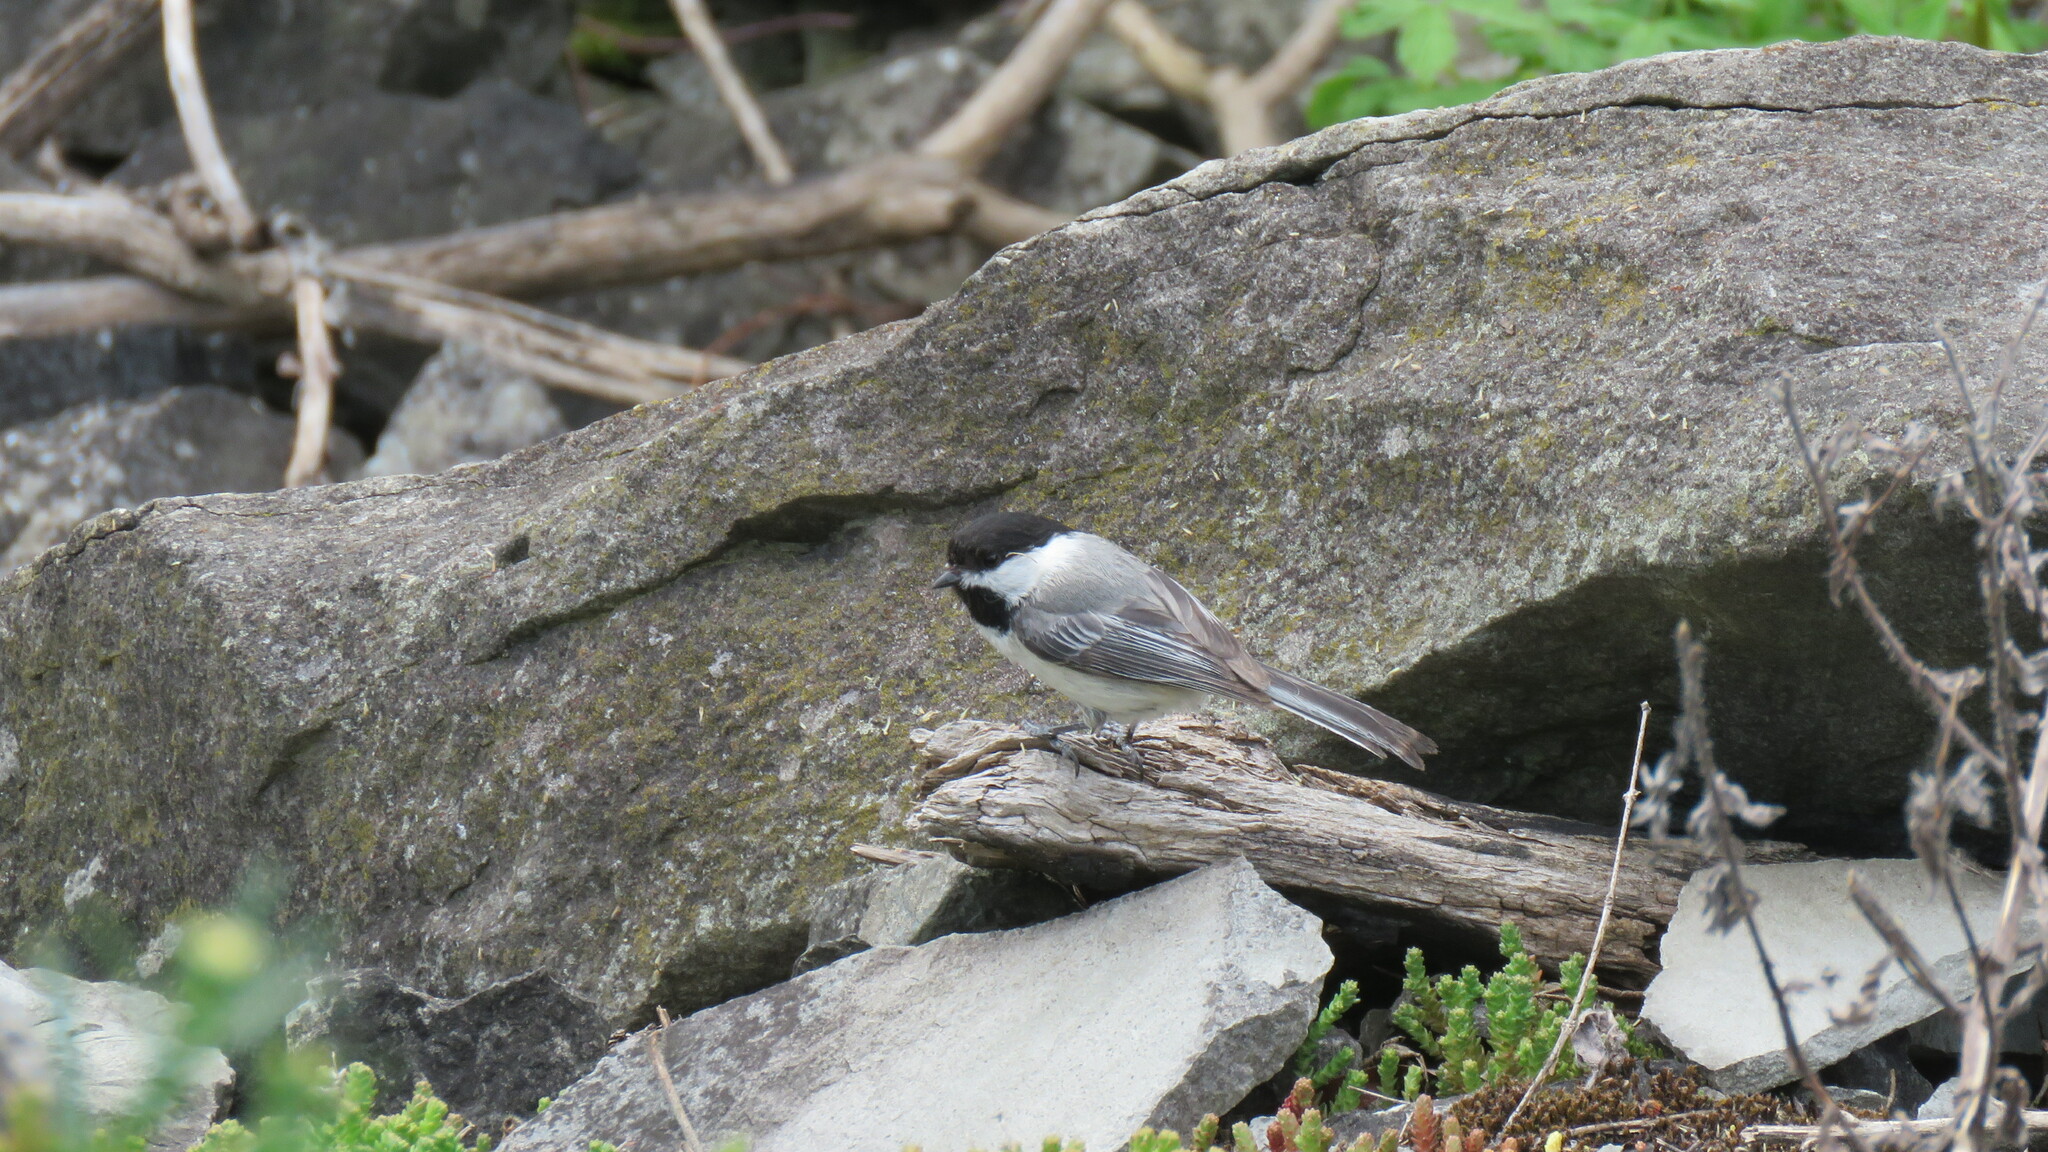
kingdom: Animalia
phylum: Chordata
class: Aves
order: Passeriformes
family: Paridae
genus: Poecile
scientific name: Poecile atricapillus
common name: Black-capped chickadee
